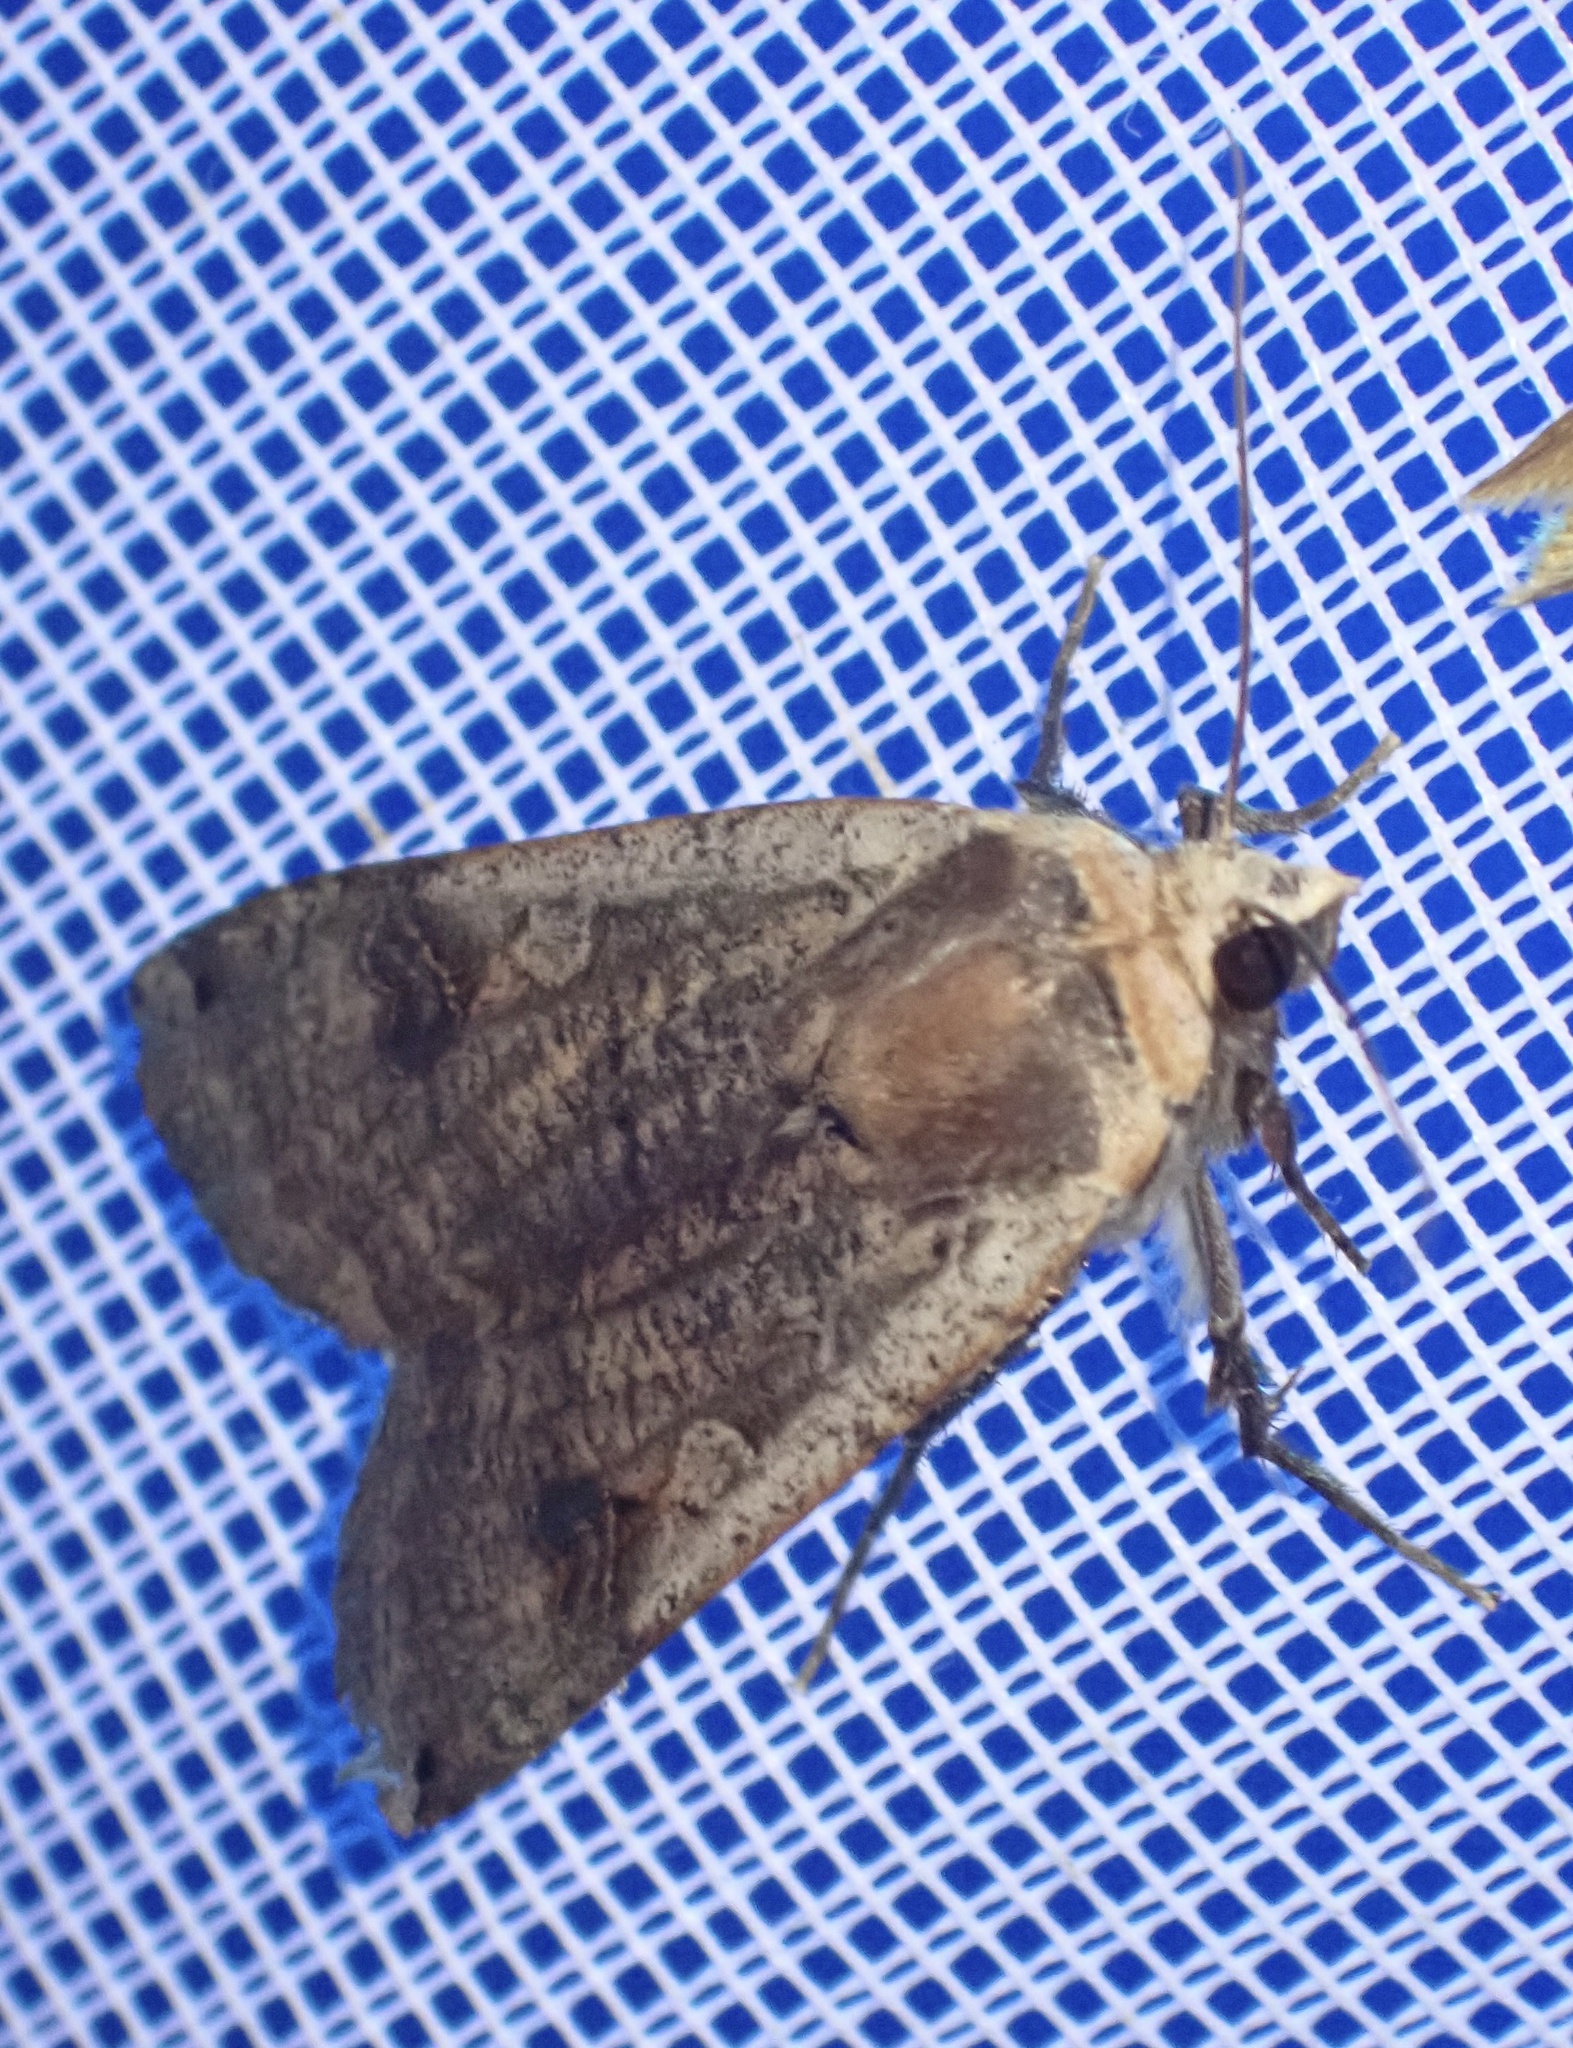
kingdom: Animalia
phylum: Arthropoda
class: Insecta
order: Lepidoptera
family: Noctuidae
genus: Noctua
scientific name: Noctua pronuba
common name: Large yellow underwing
